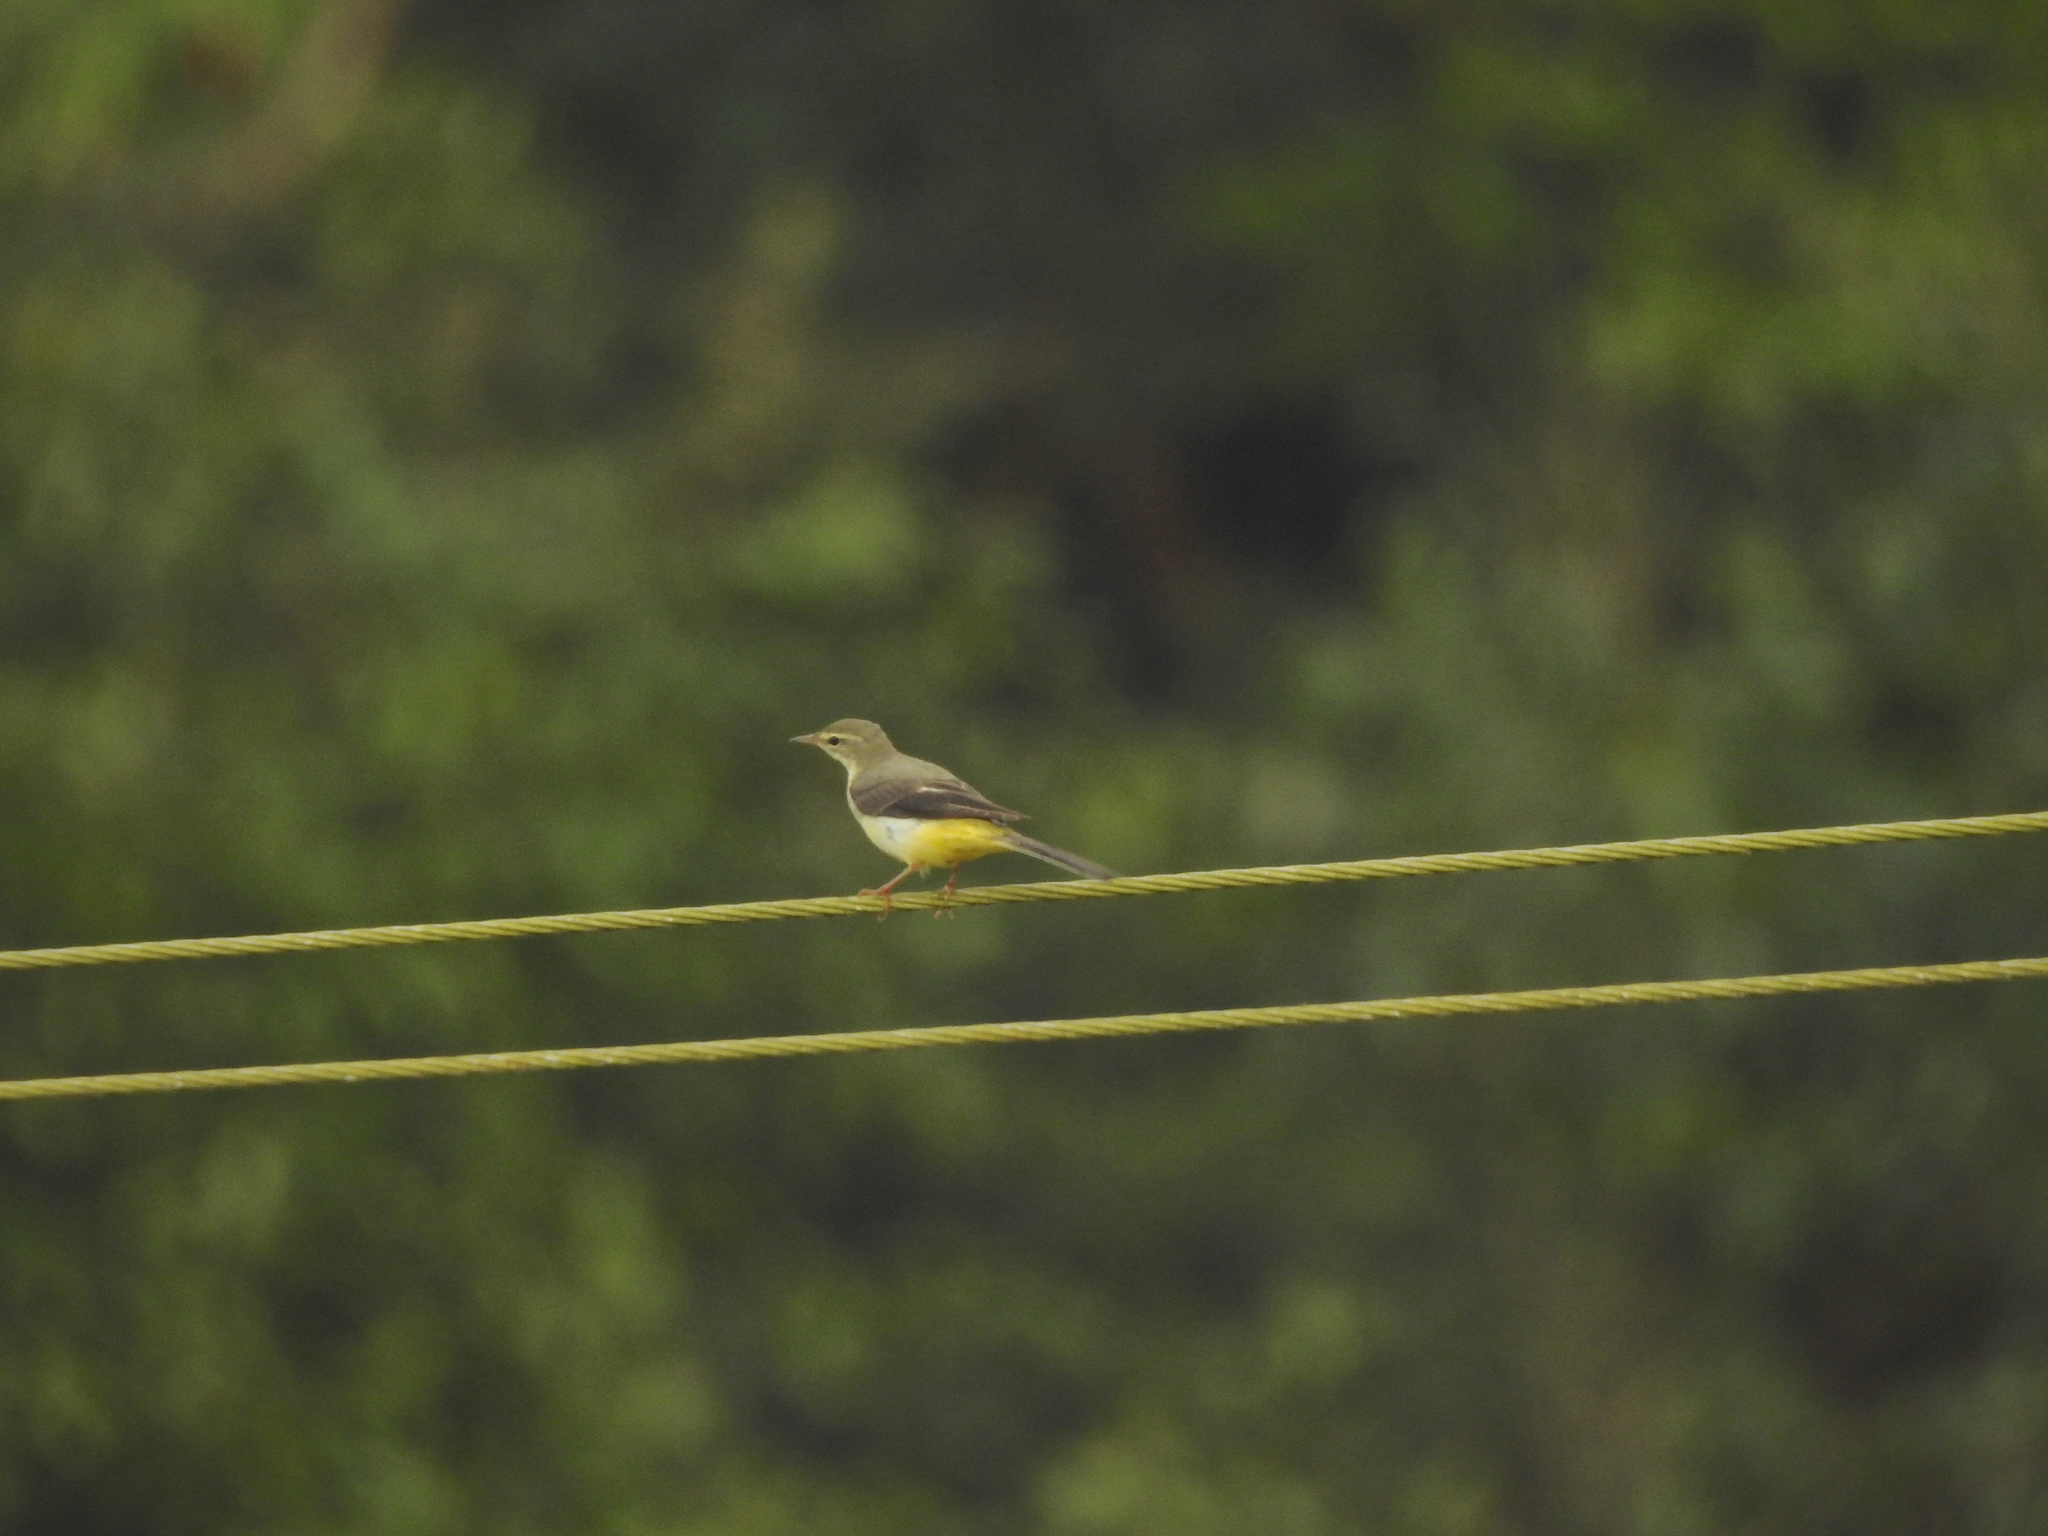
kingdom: Animalia
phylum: Chordata
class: Aves
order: Passeriformes
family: Motacillidae
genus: Motacilla
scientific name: Motacilla cinerea
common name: Grey wagtail
